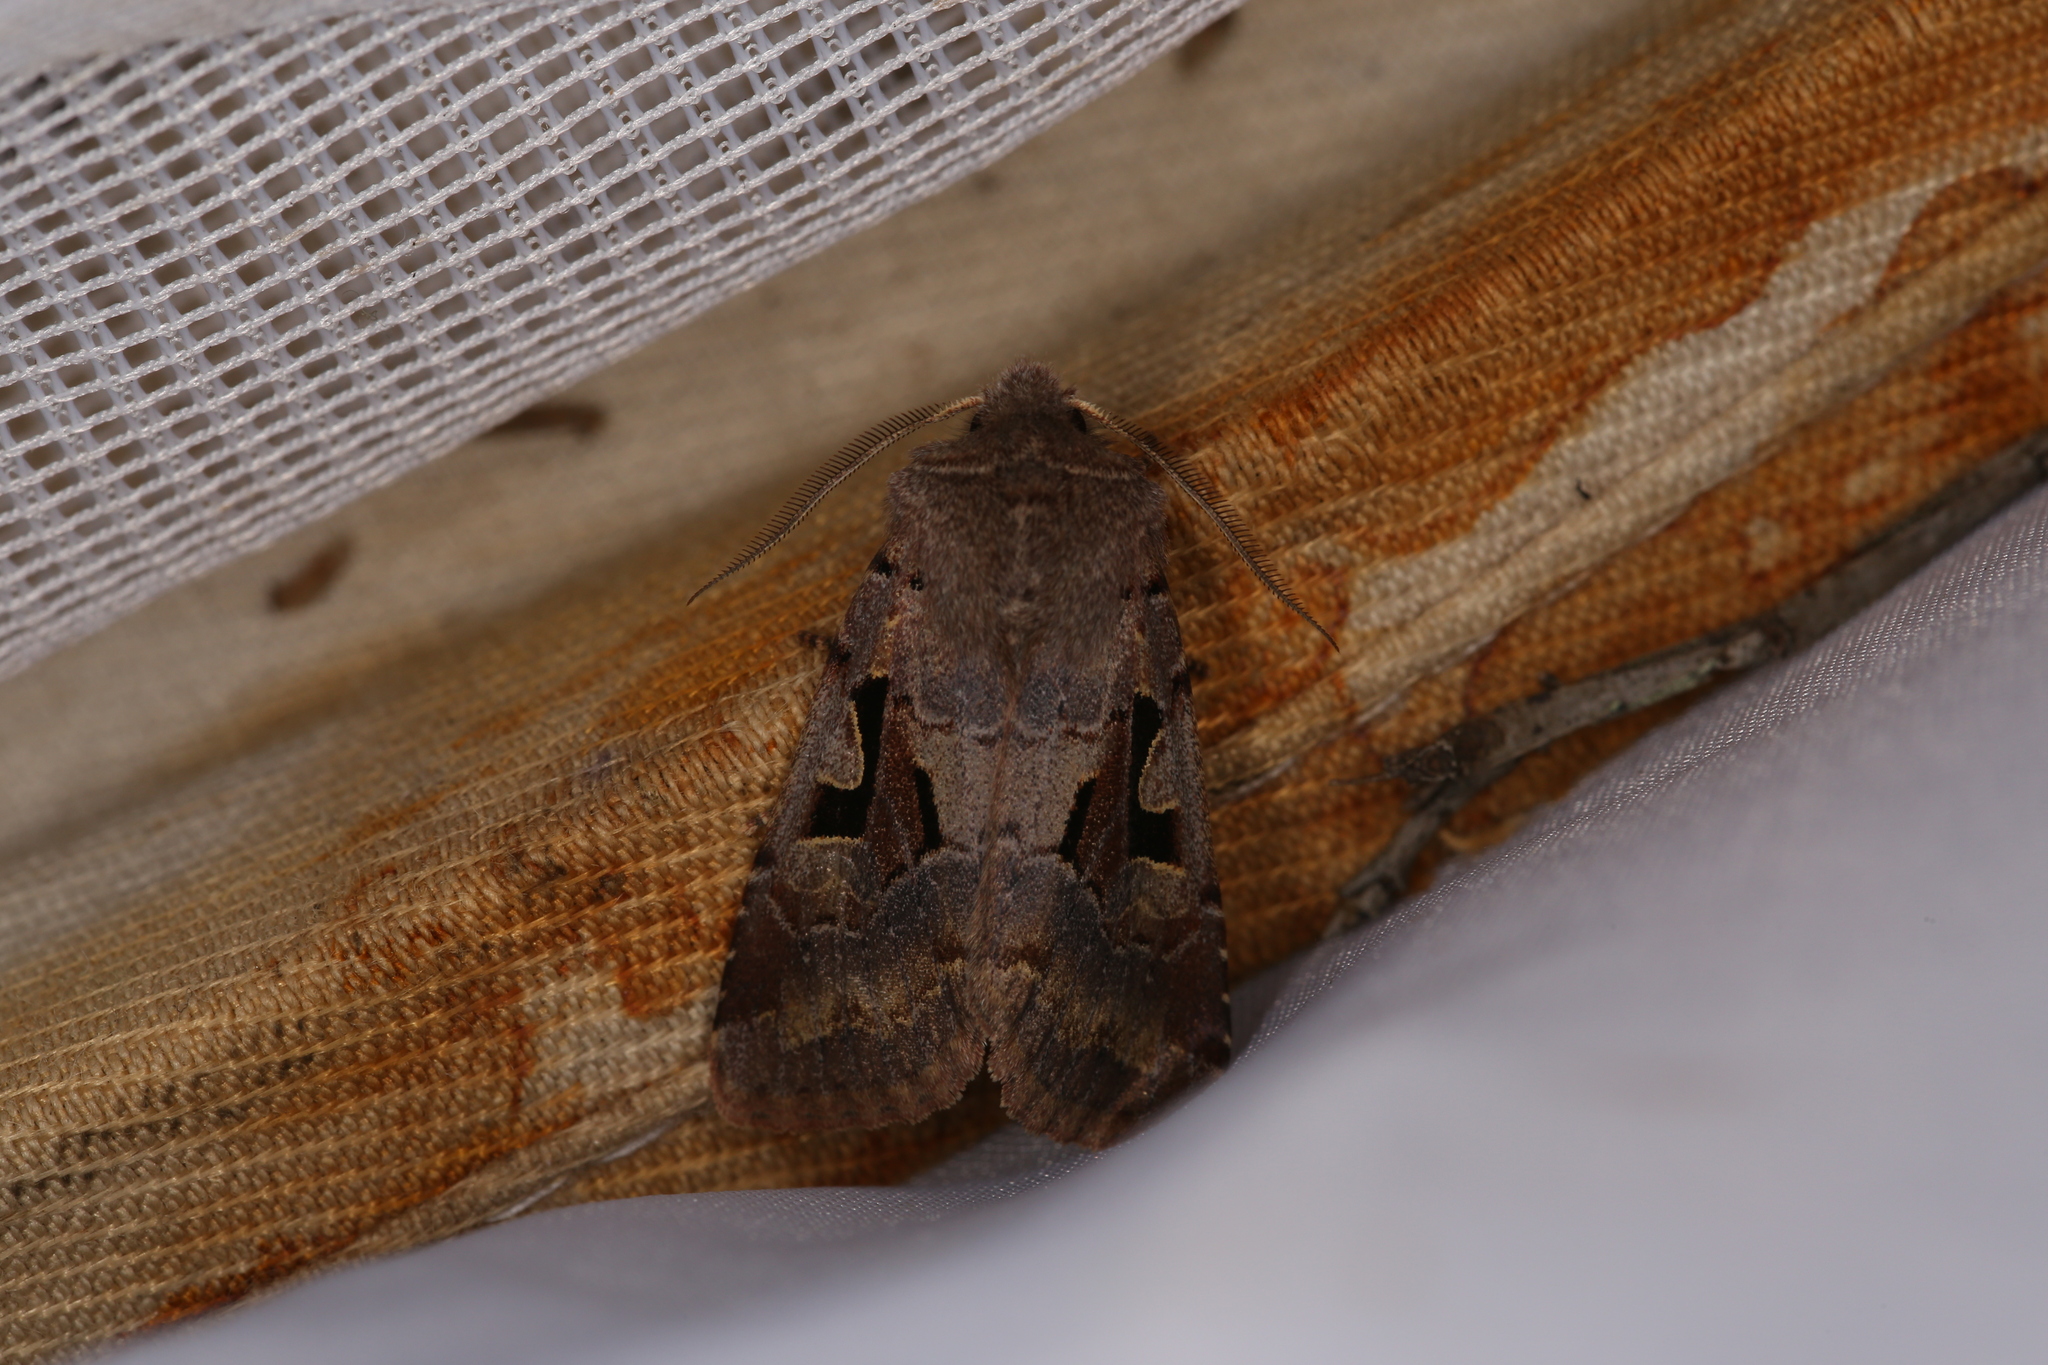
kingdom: Animalia
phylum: Arthropoda
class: Insecta
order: Lepidoptera
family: Noctuidae
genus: Orthosia
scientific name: Orthosia gothica
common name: Hebrew character
